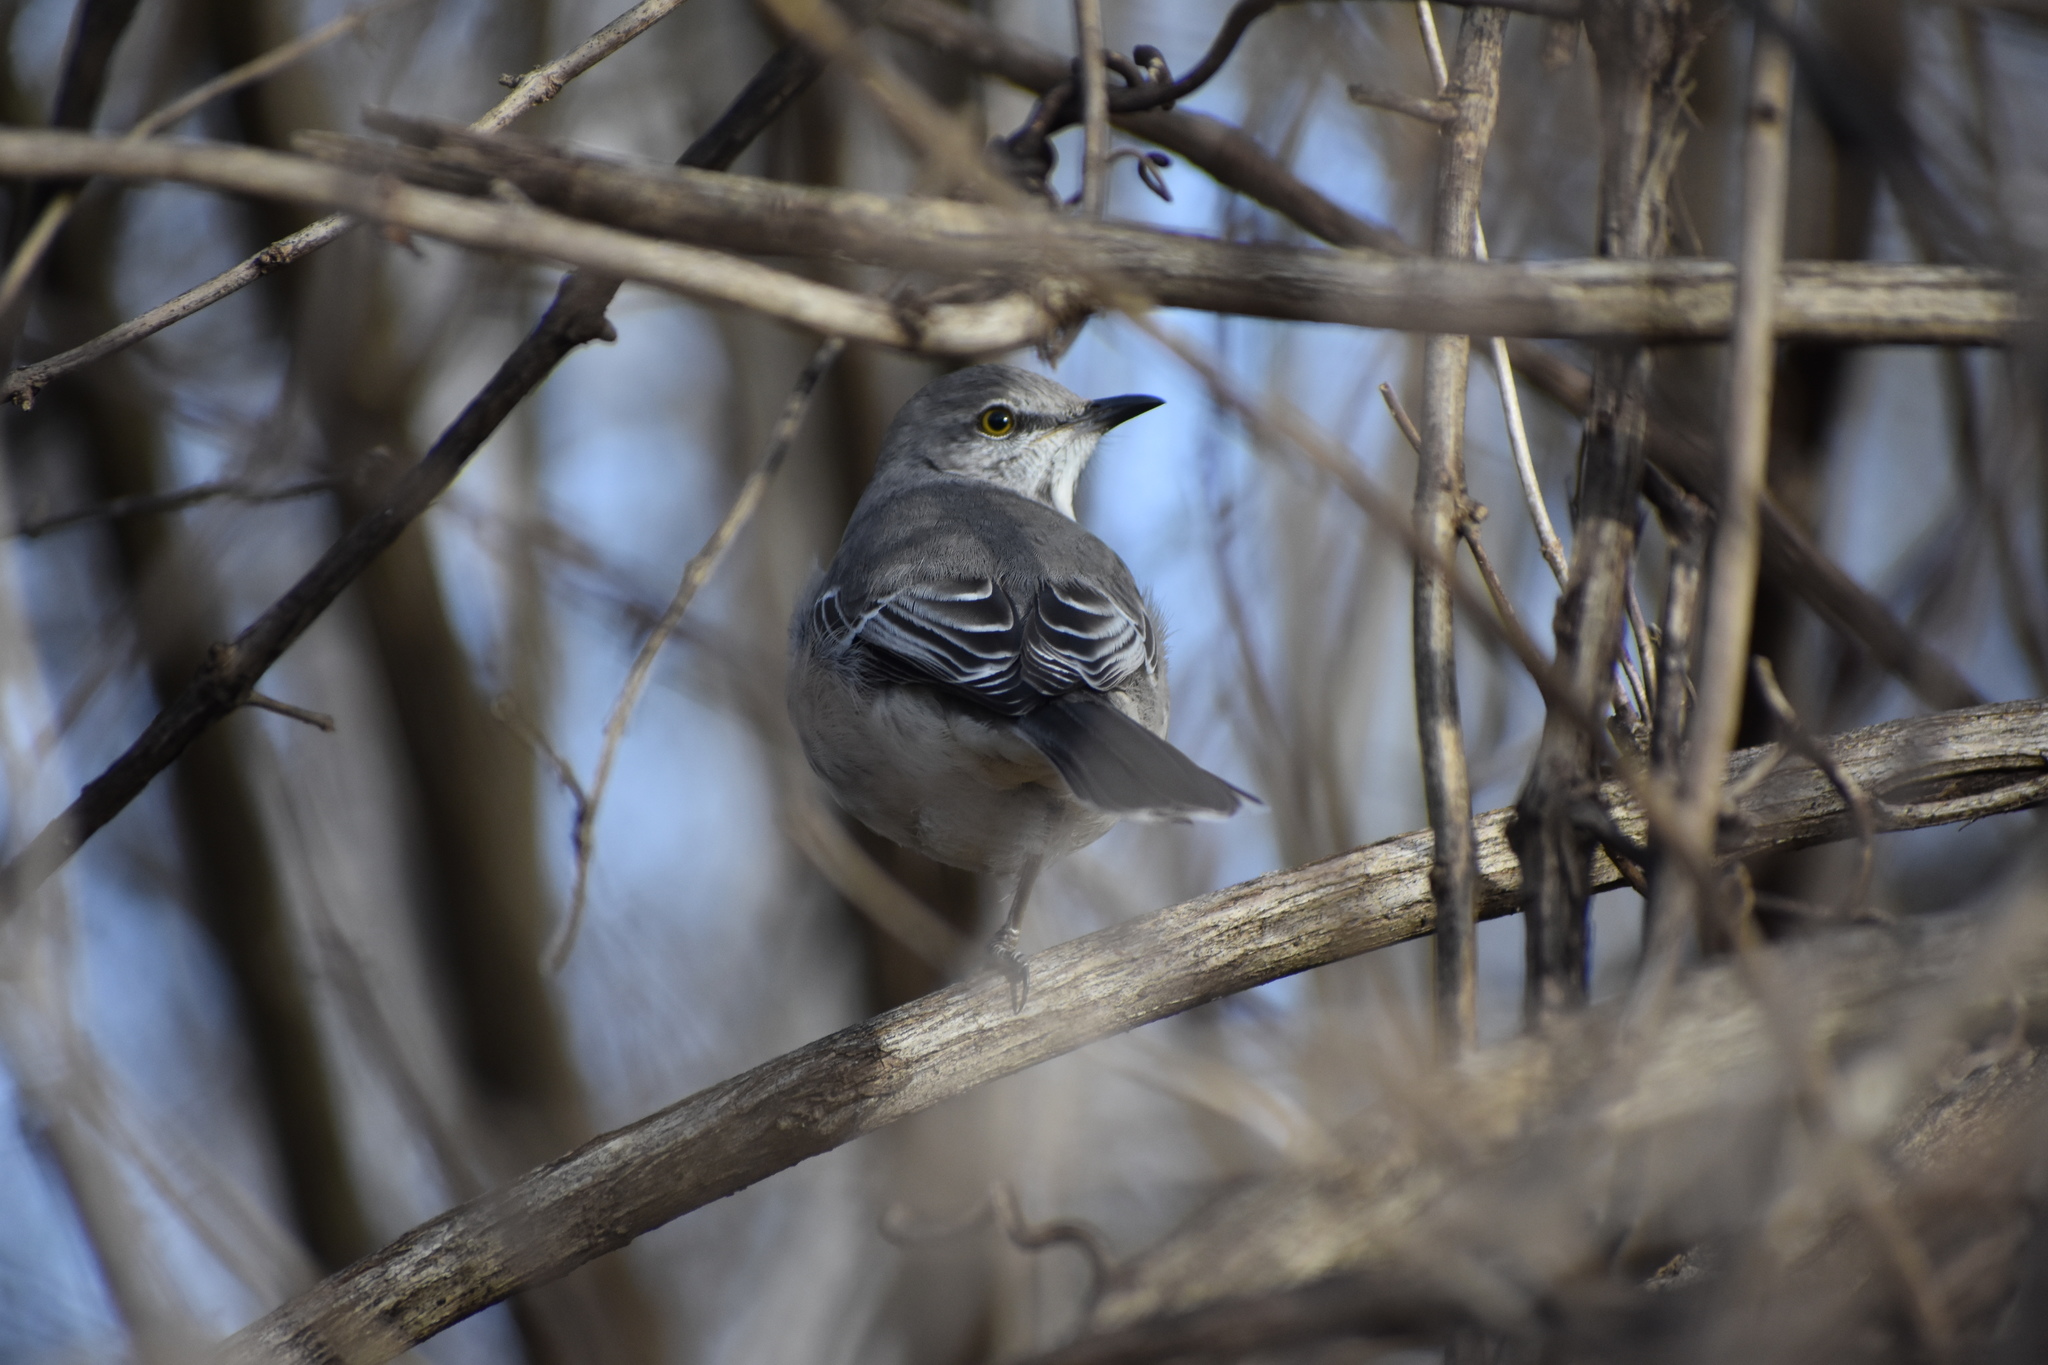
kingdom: Animalia
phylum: Chordata
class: Aves
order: Passeriformes
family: Mimidae
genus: Mimus
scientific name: Mimus polyglottos
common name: Northern mockingbird
